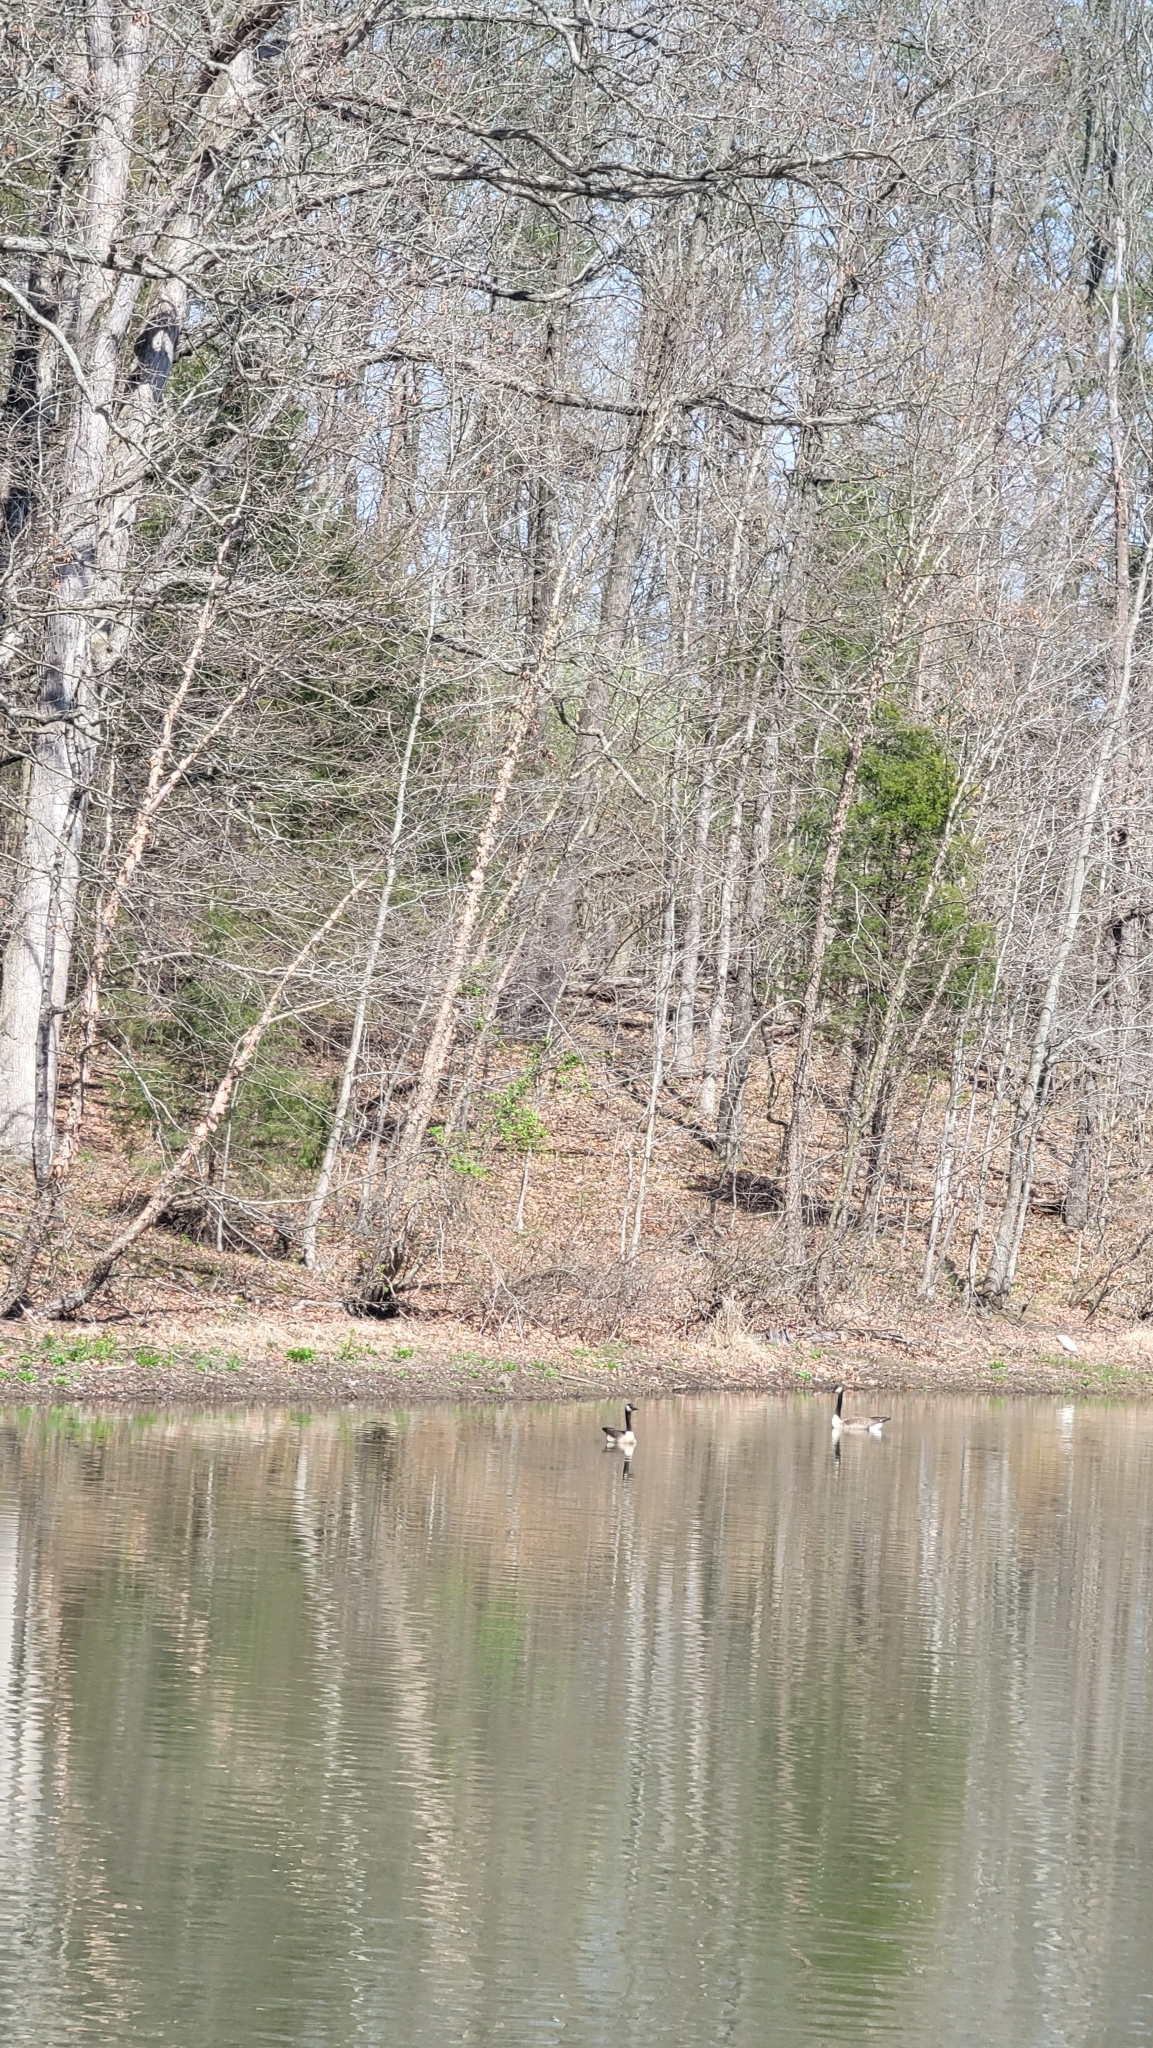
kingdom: Animalia
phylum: Chordata
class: Aves
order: Anseriformes
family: Anatidae
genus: Branta
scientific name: Branta canadensis
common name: Canada goose
